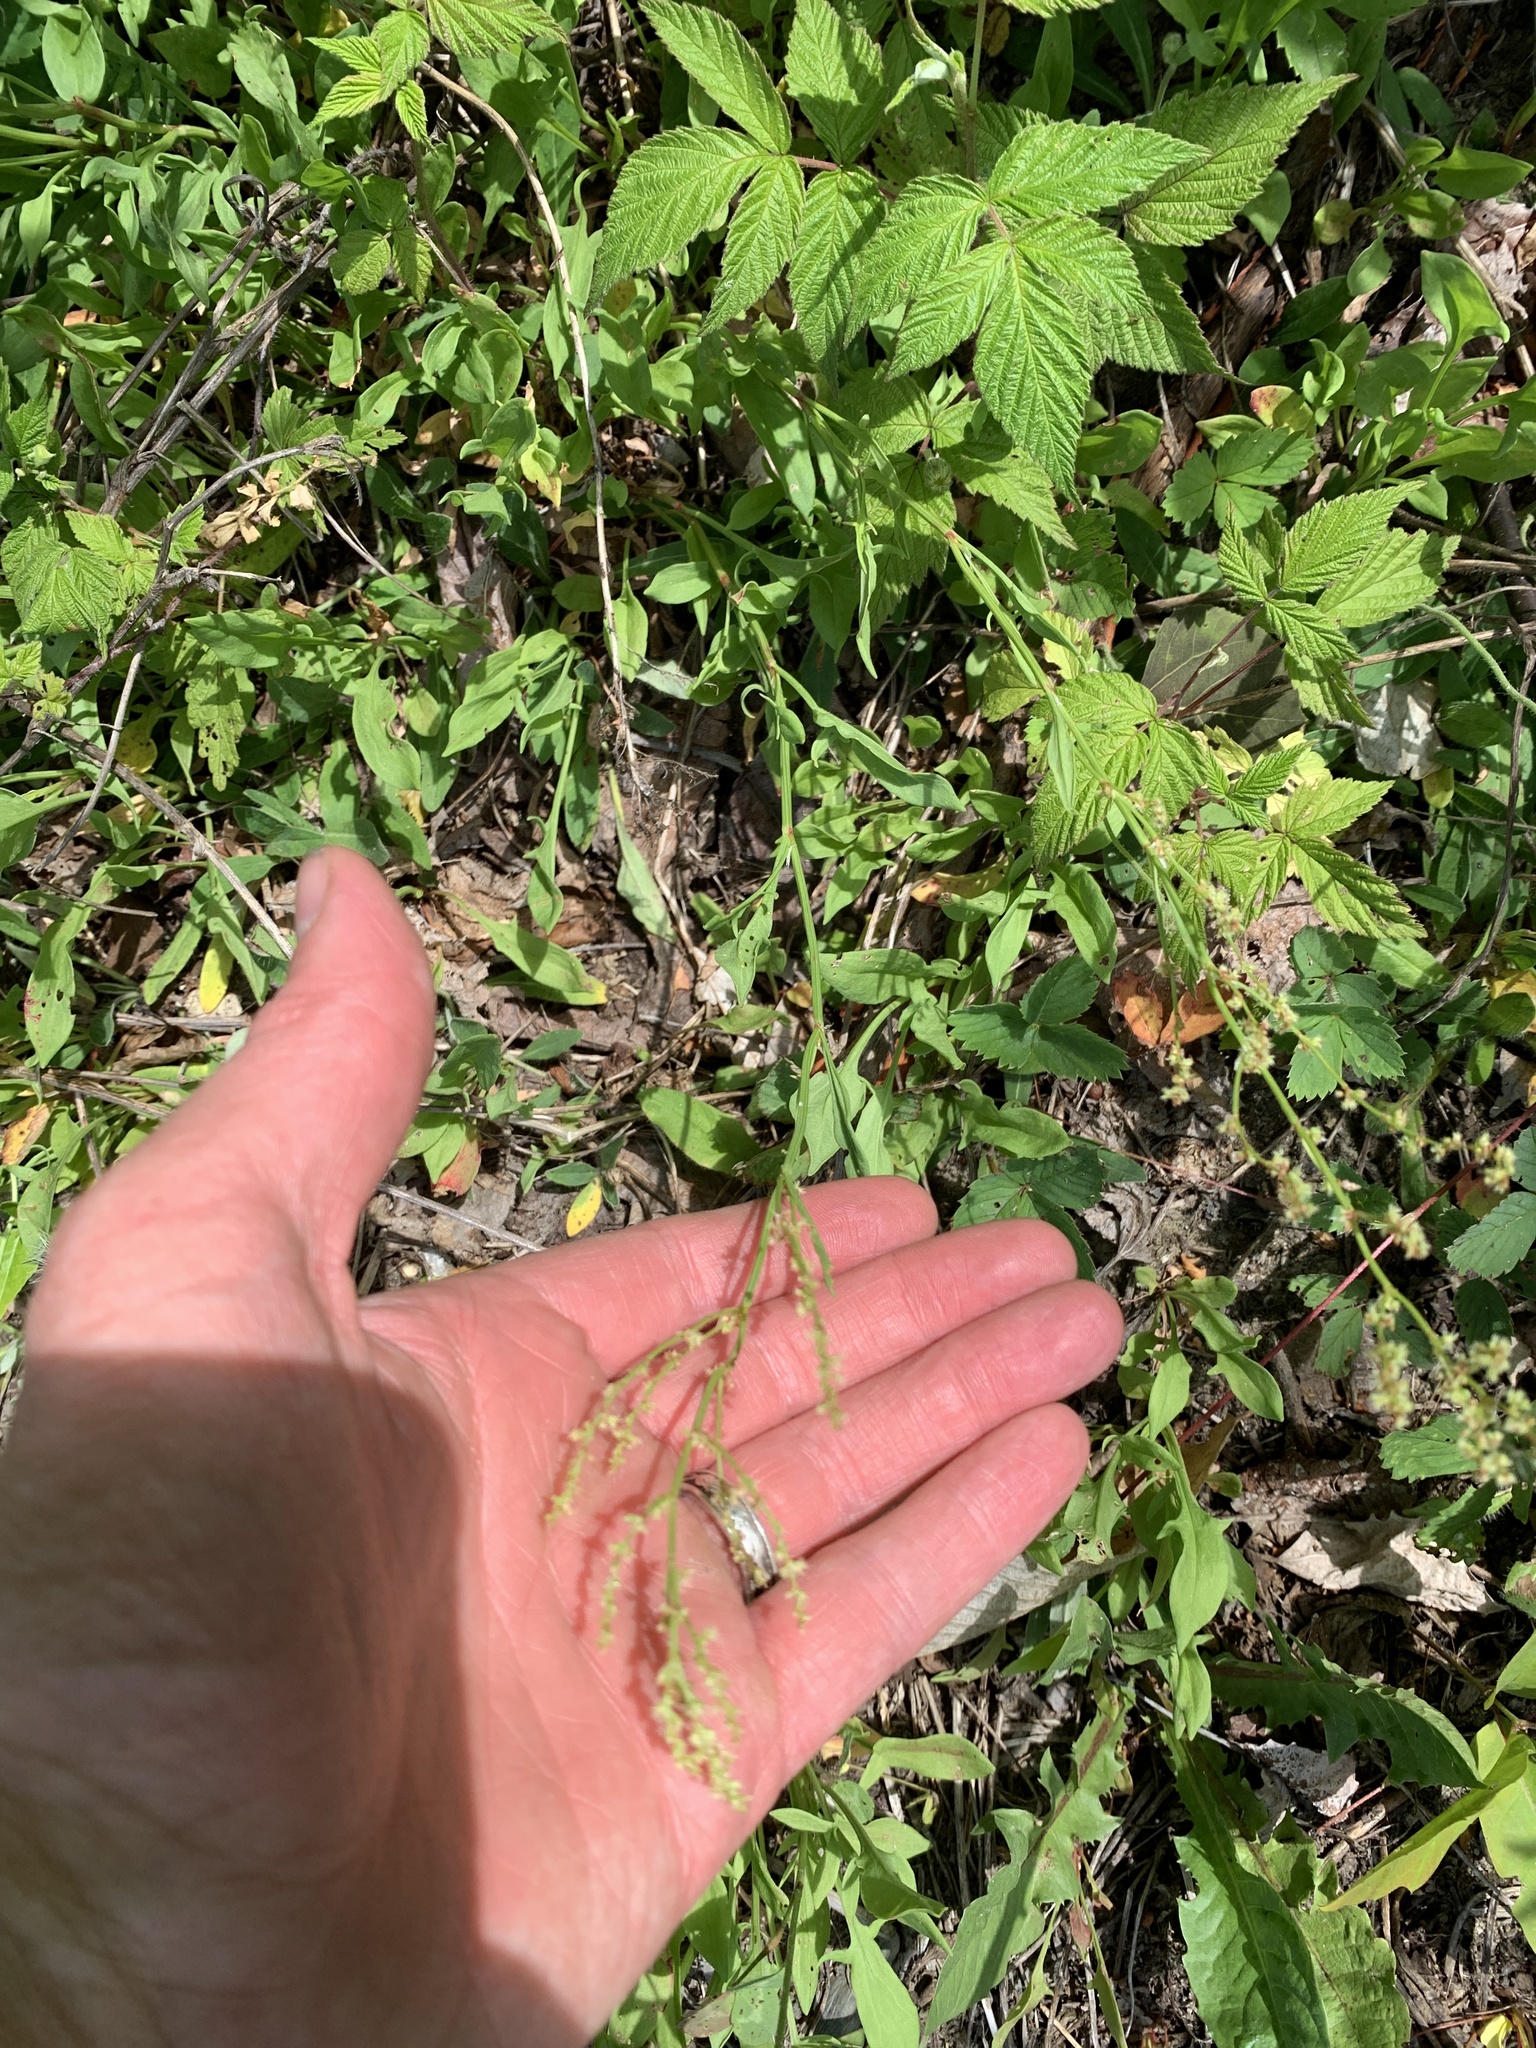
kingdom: Plantae
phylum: Tracheophyta
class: Magnoliopsida
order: Caryophyllales
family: Polygonaceae
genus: Rumex
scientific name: Rumex acetosella
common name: Common sheep sorrel
